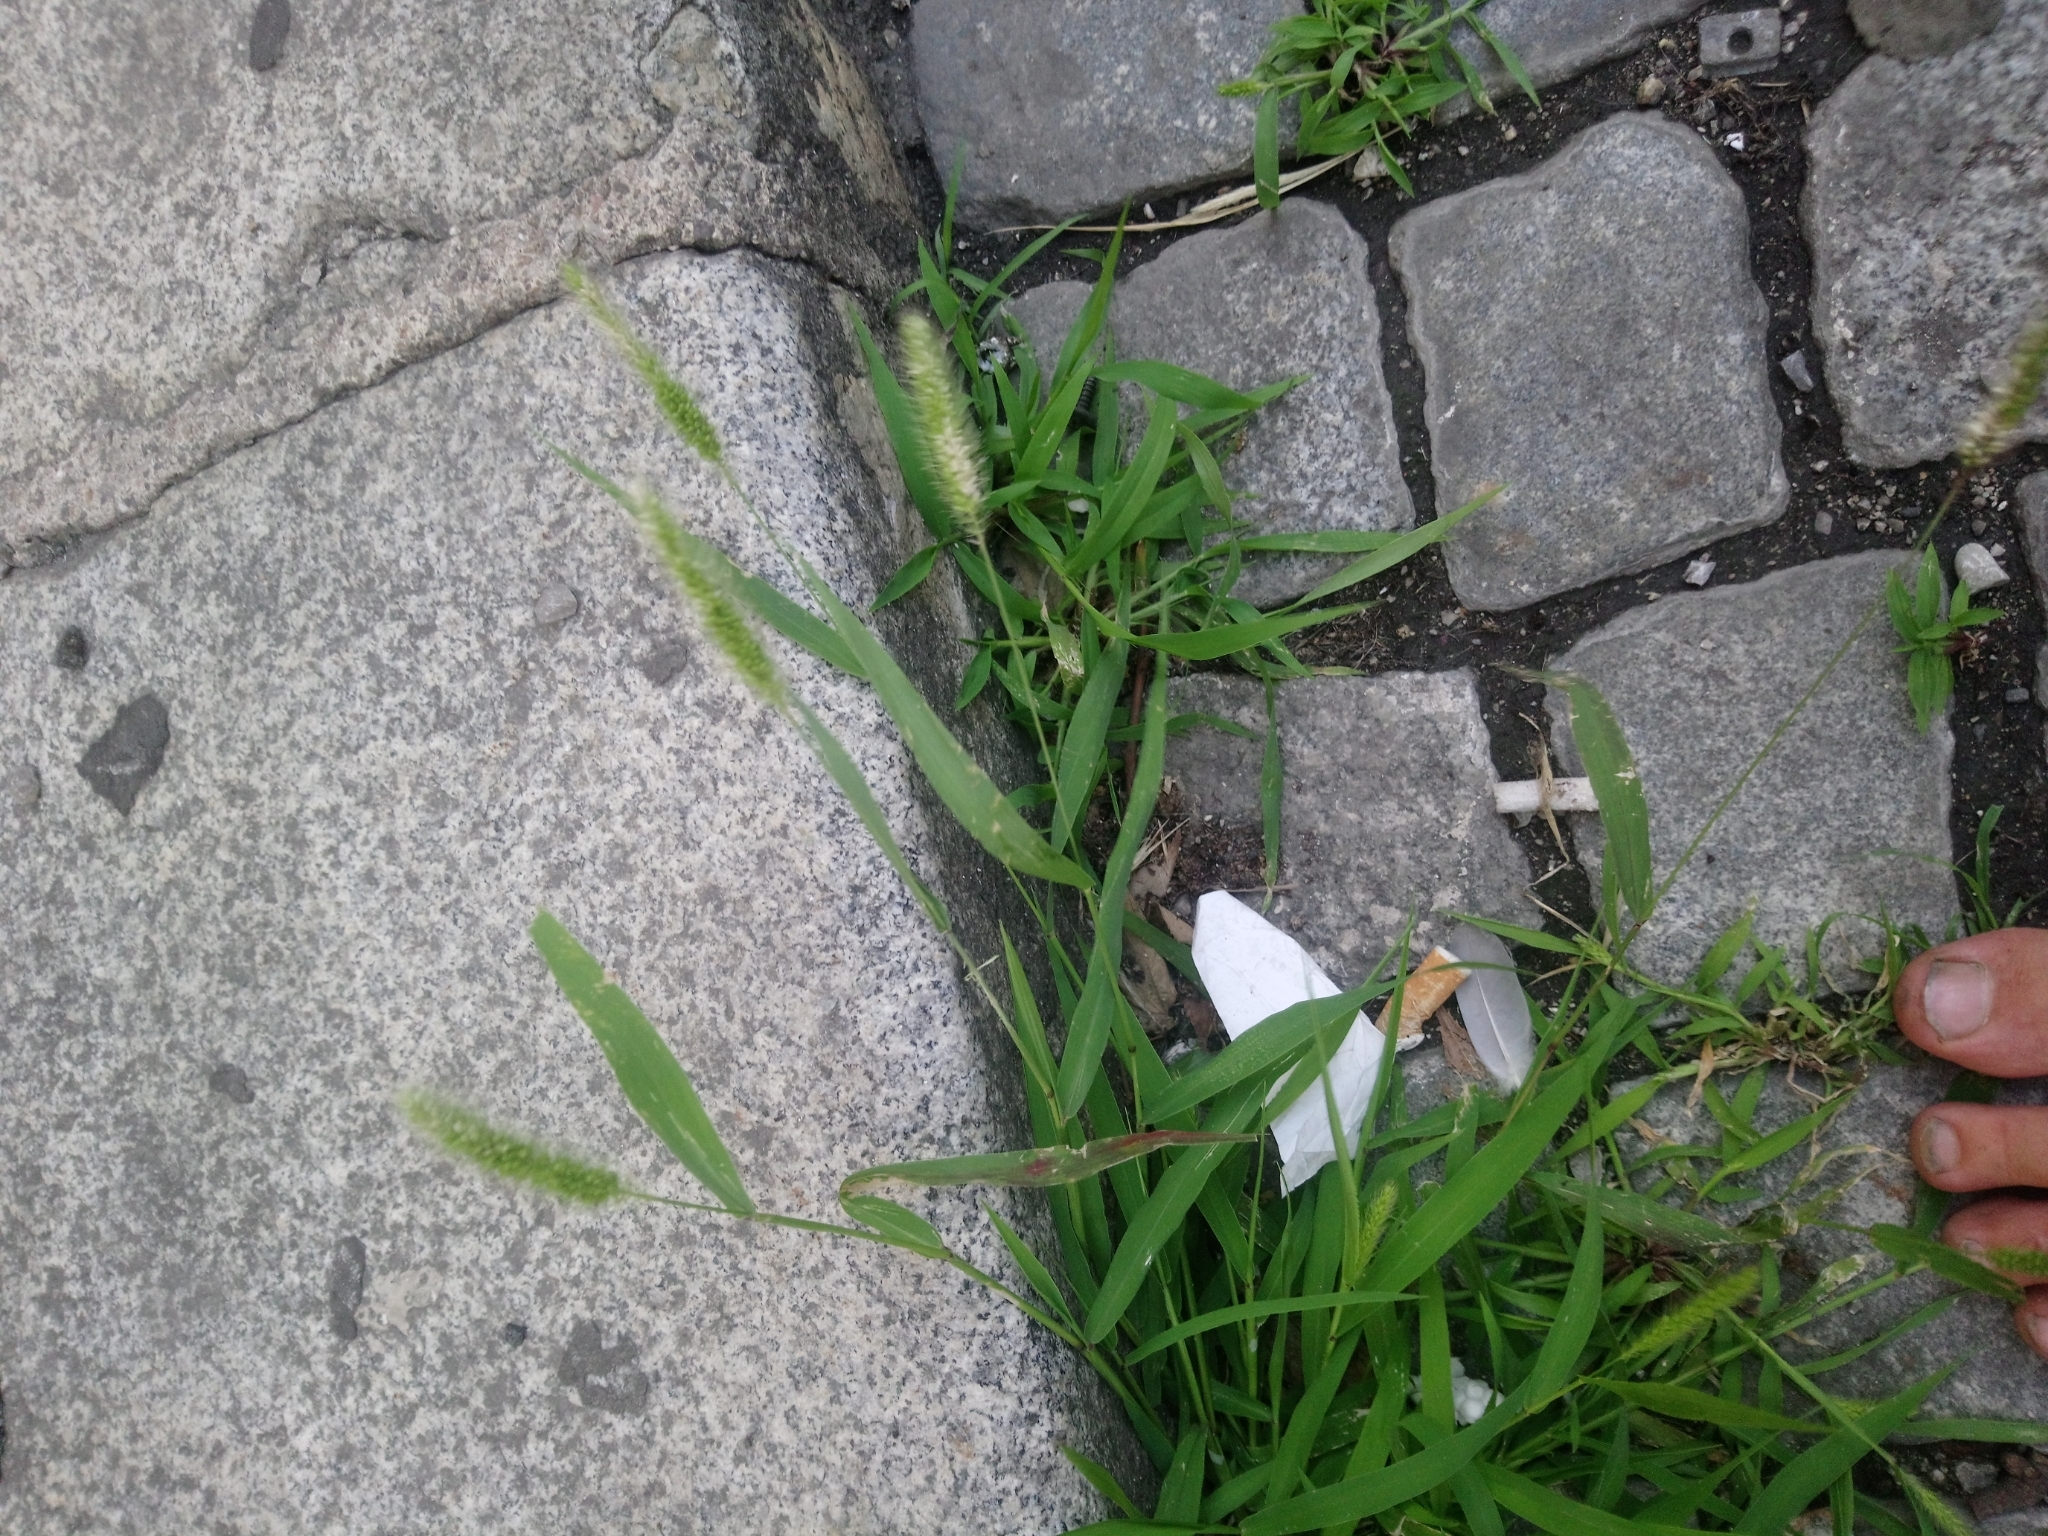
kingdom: Plantae
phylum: Tracheophyta
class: Liliopsida
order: Poales
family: Poaceae
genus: Setaria
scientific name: Setaria viridis
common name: Green bristlegrass
